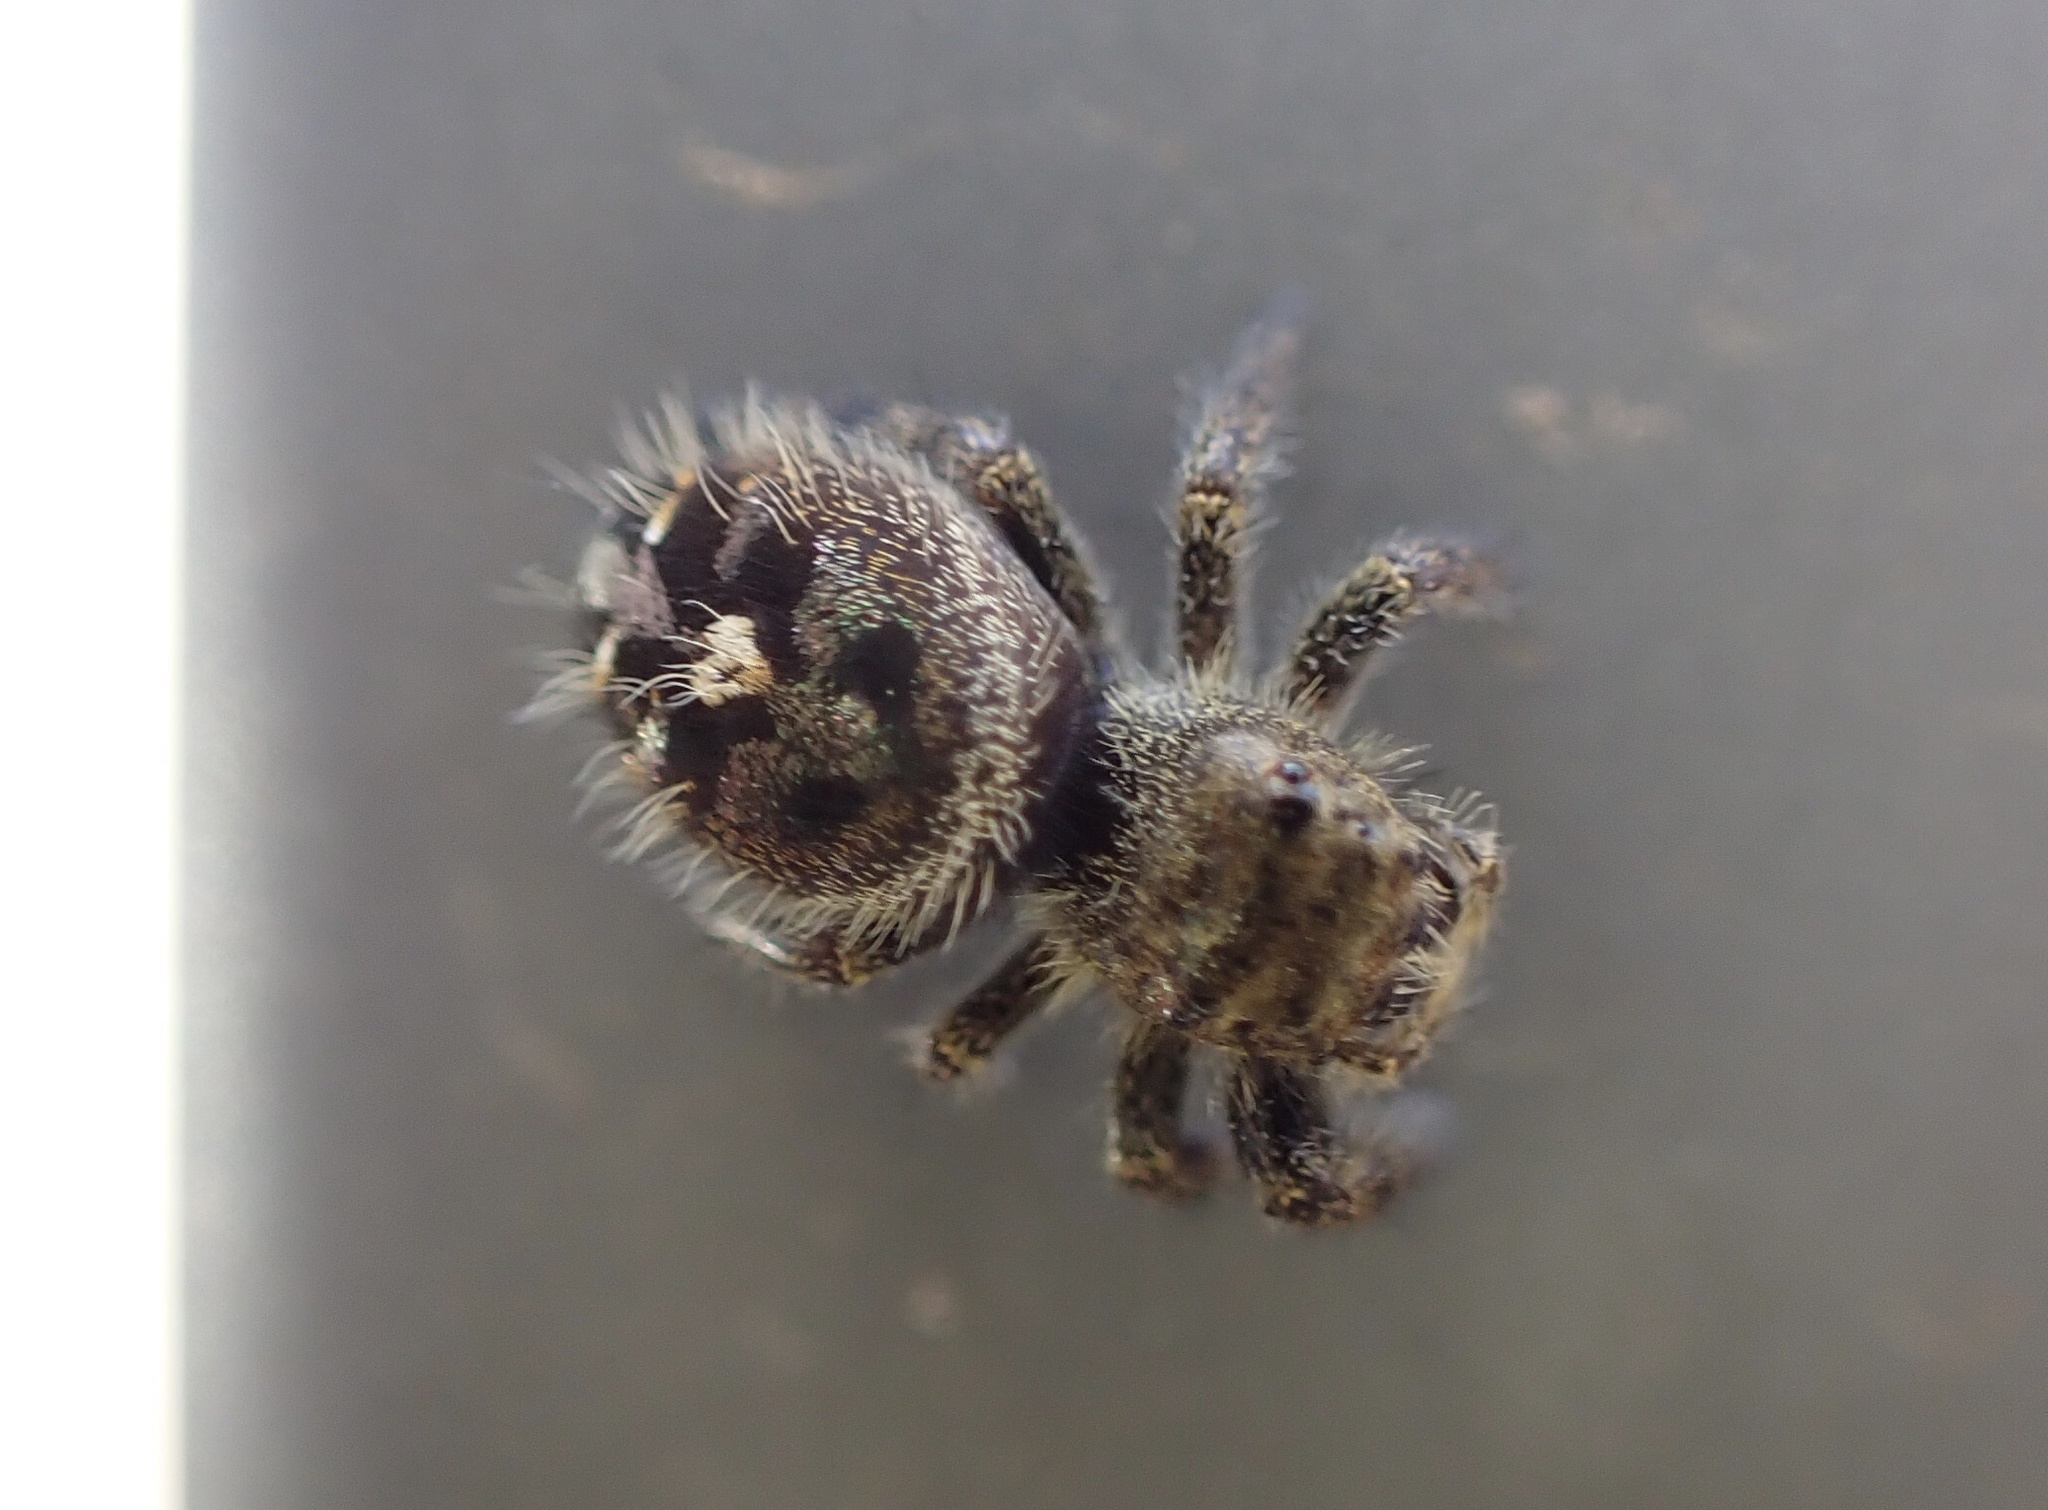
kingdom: Animalia
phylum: Arthropoda
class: Arachnida
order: Araneae
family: Salticidae
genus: Phidippus
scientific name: Phidippus audax
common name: Bold jumper
